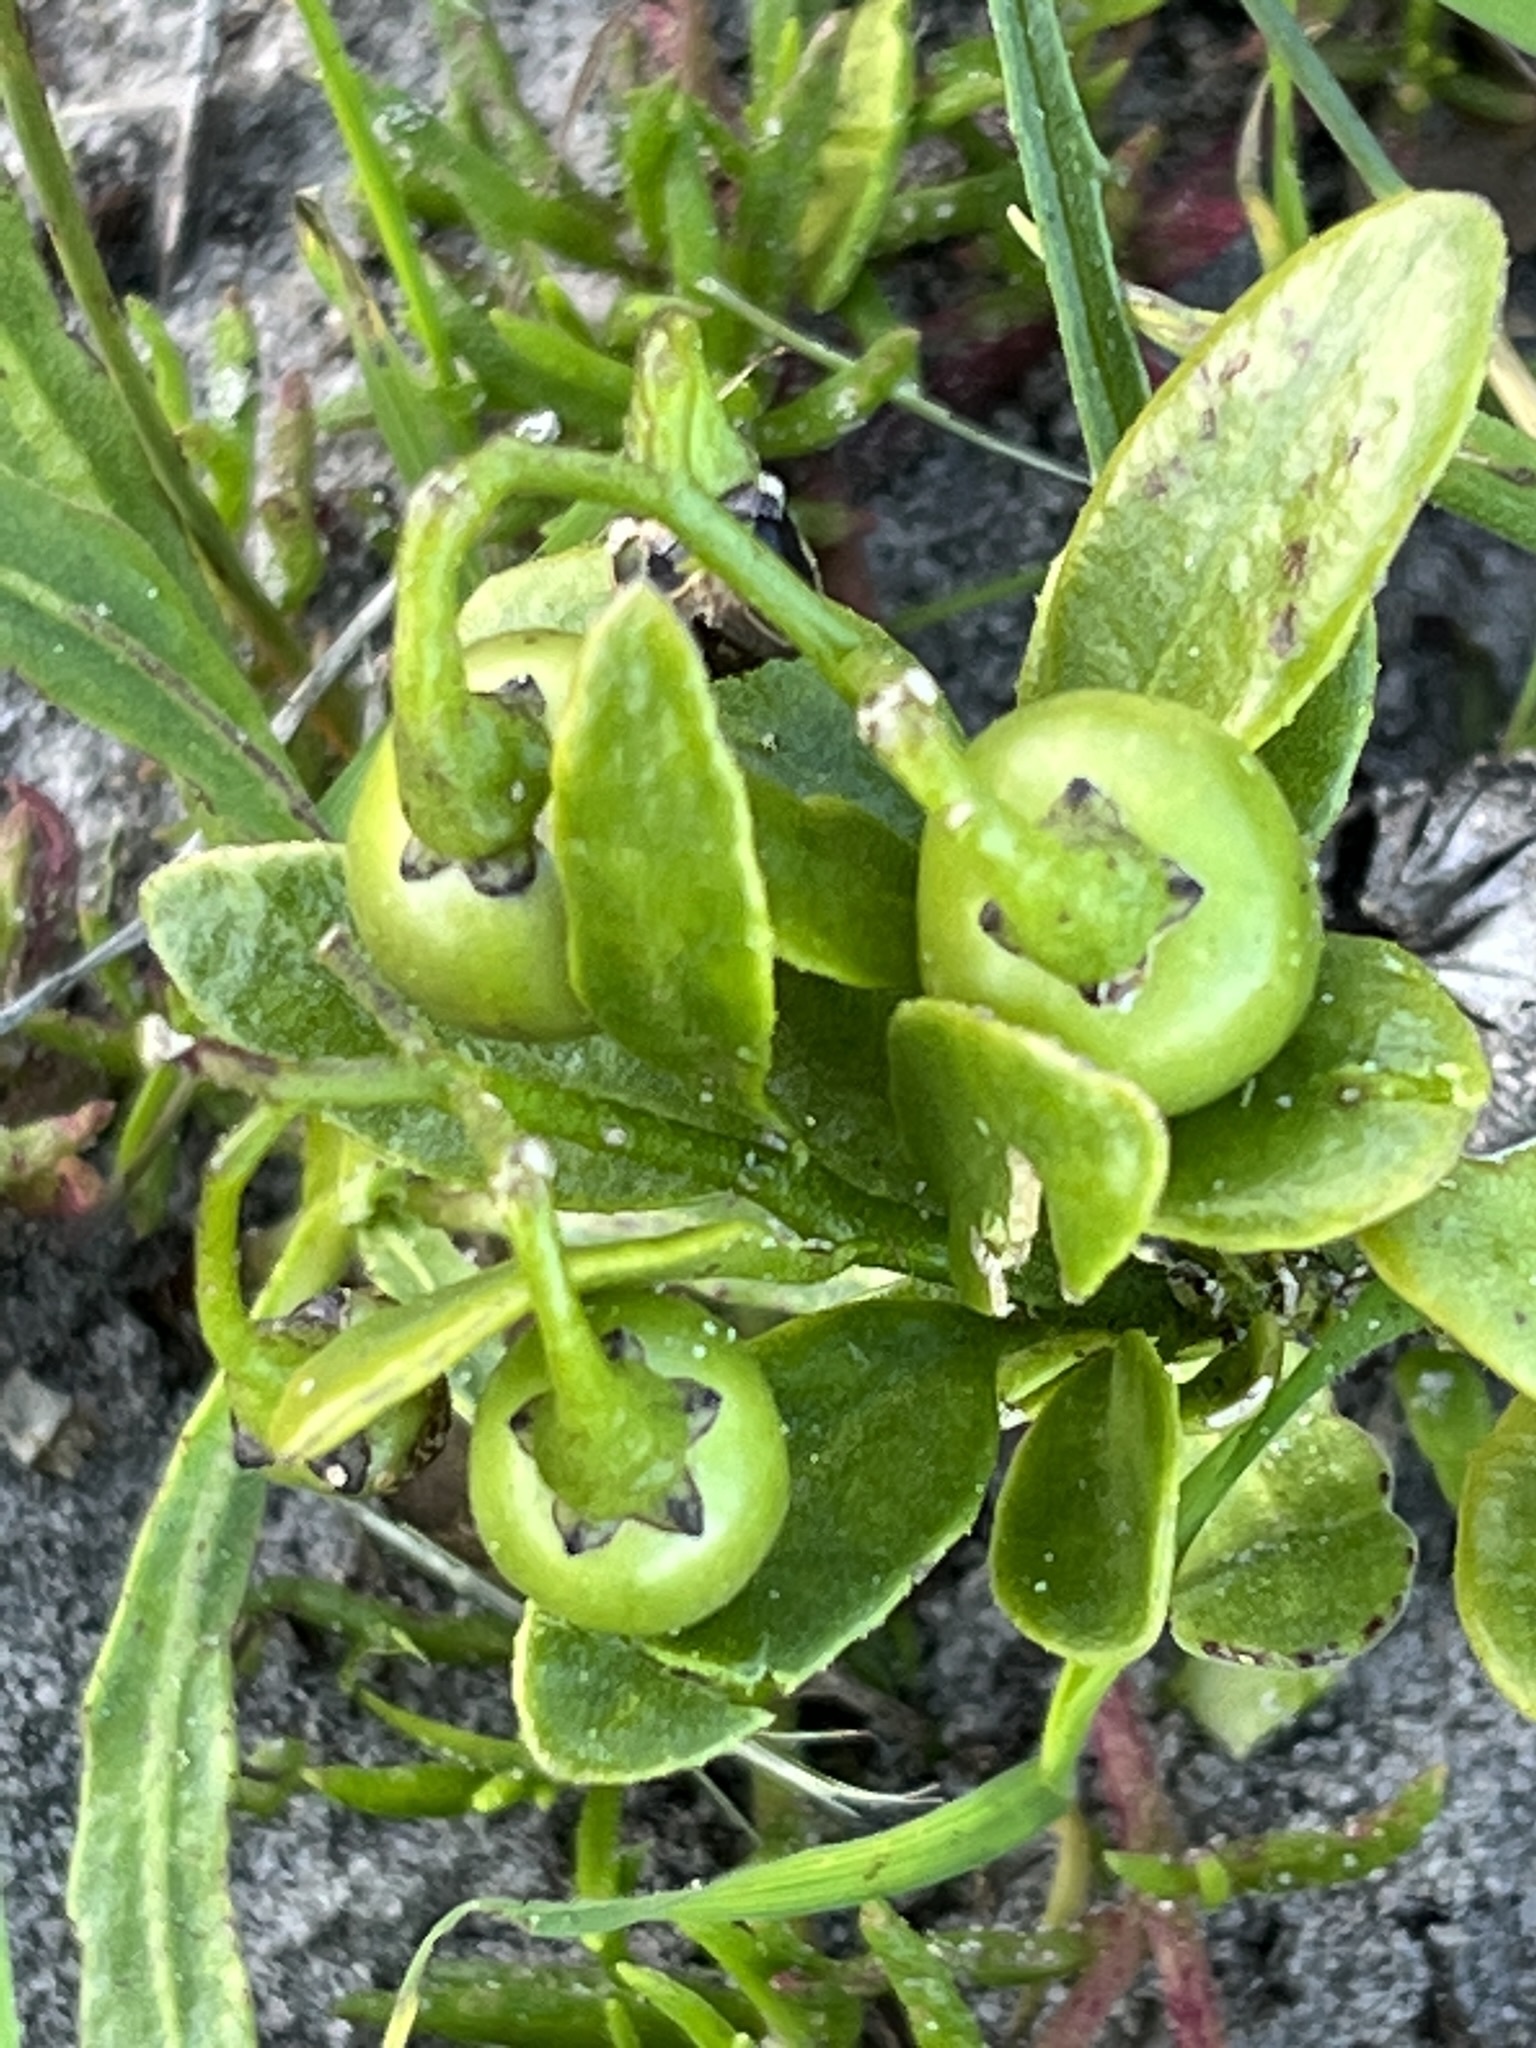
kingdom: Plantae
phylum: Tracheophyta
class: Magnoliopsida
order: Solanales
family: Solanaceae
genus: Solanum
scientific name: Solanum africanum
